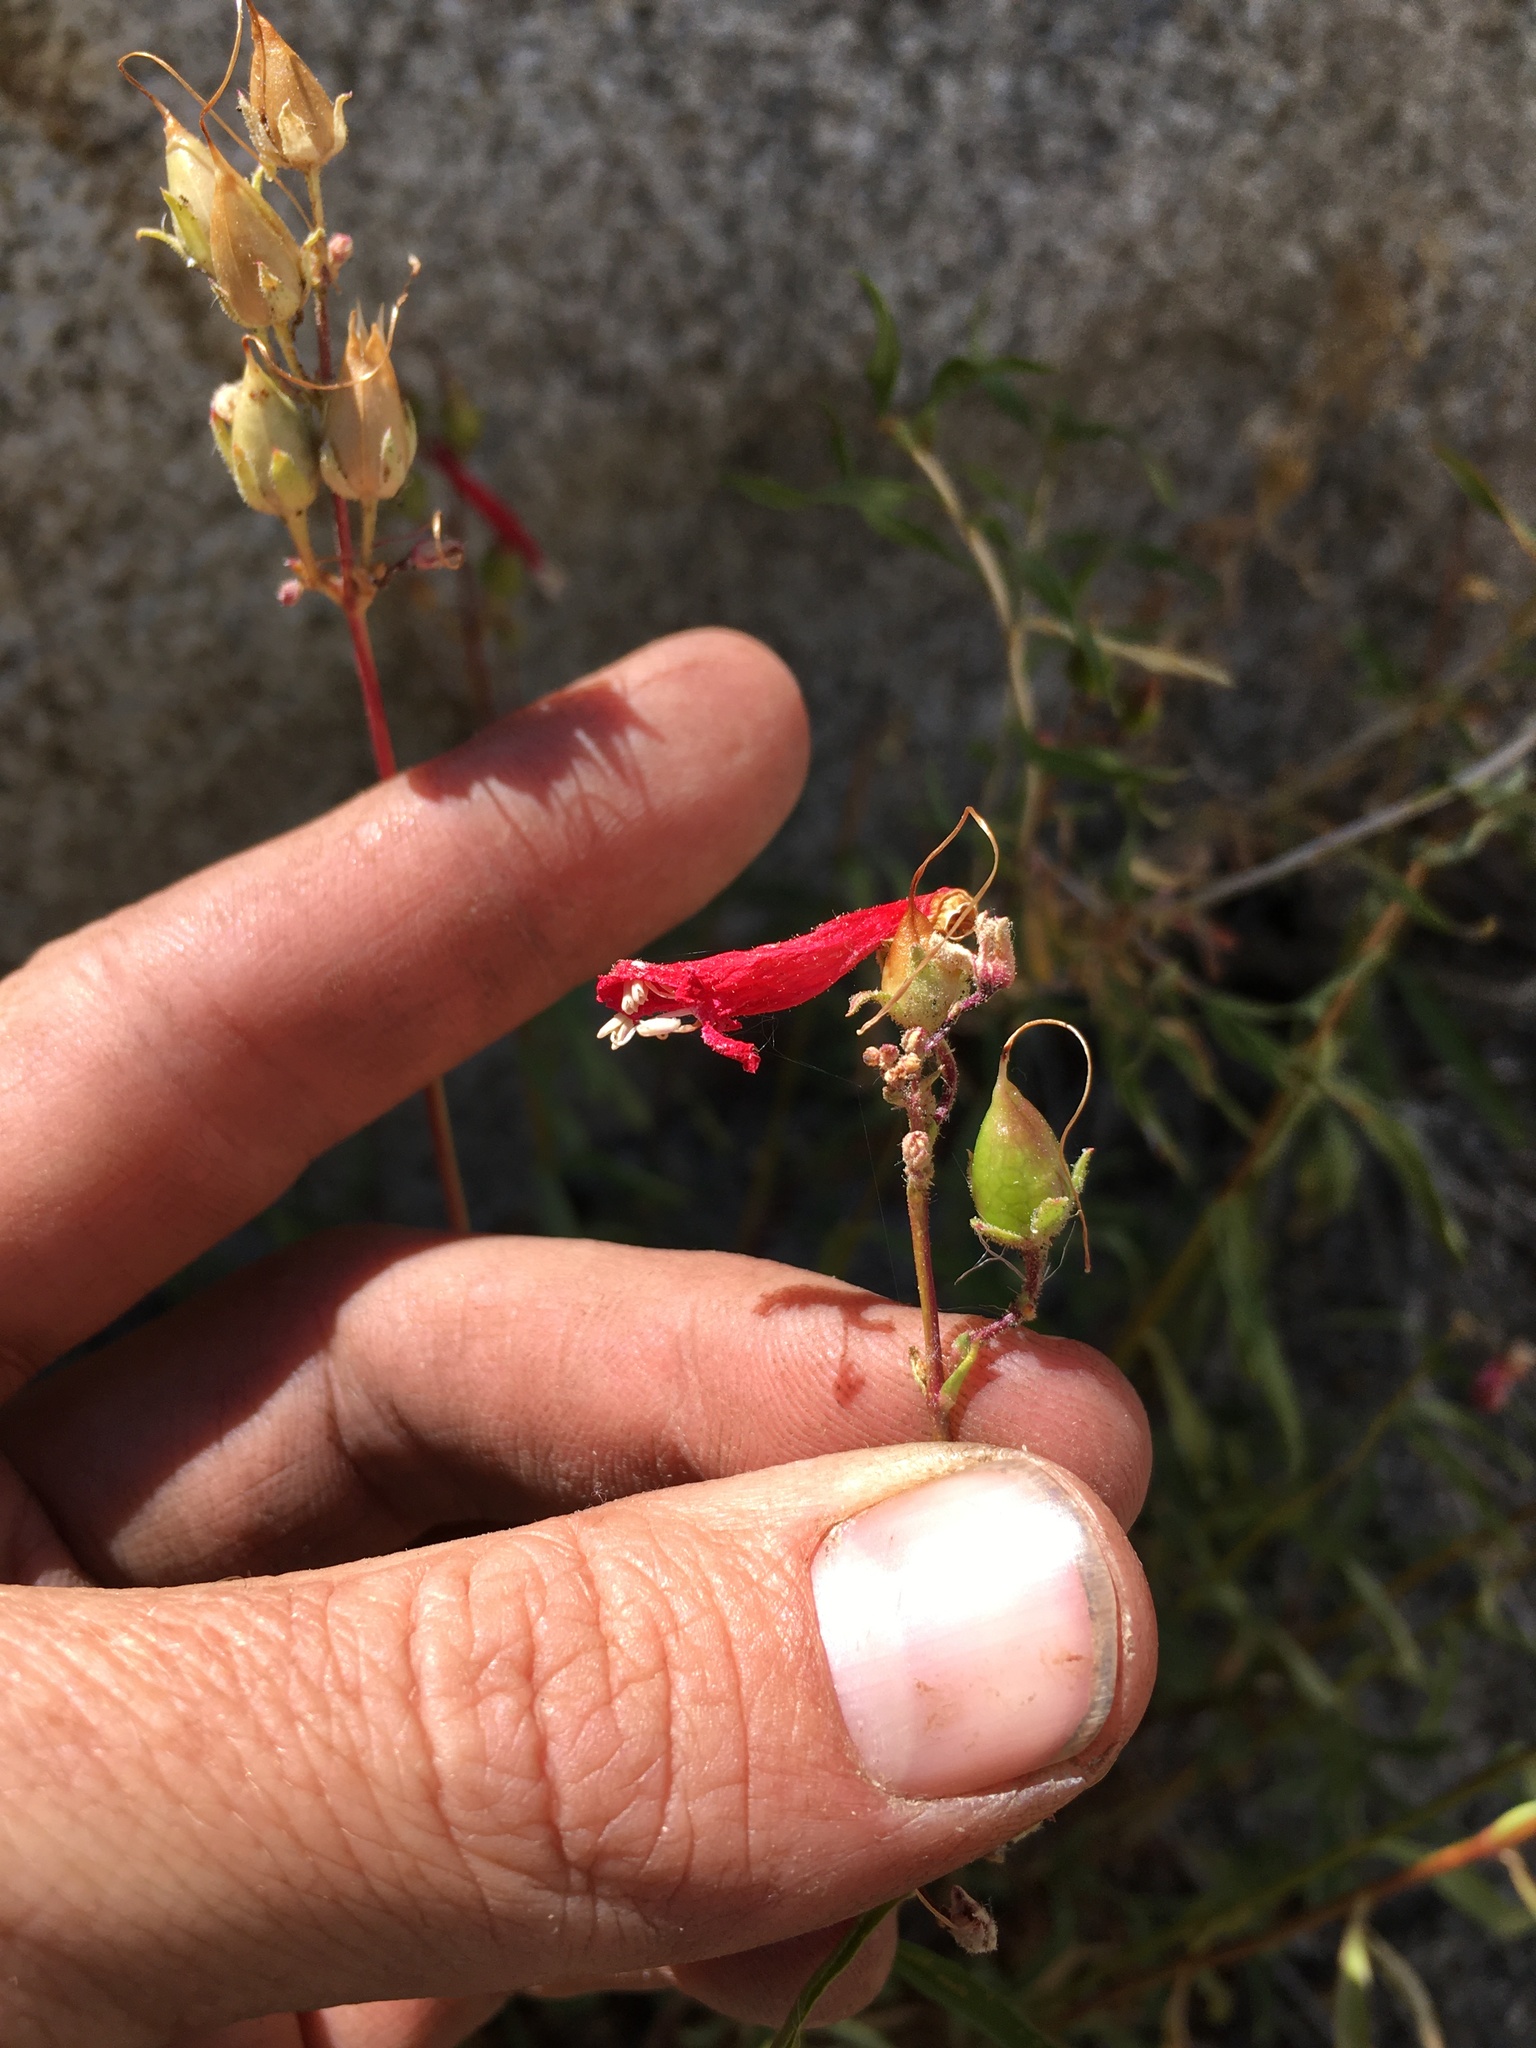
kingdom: Plantae
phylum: Tracheophyta
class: Magnoliopsida
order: Lamiales
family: Plantaginaceae
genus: Penstemon
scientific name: Penstemon rostriflorus
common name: Bridges's penstemon
